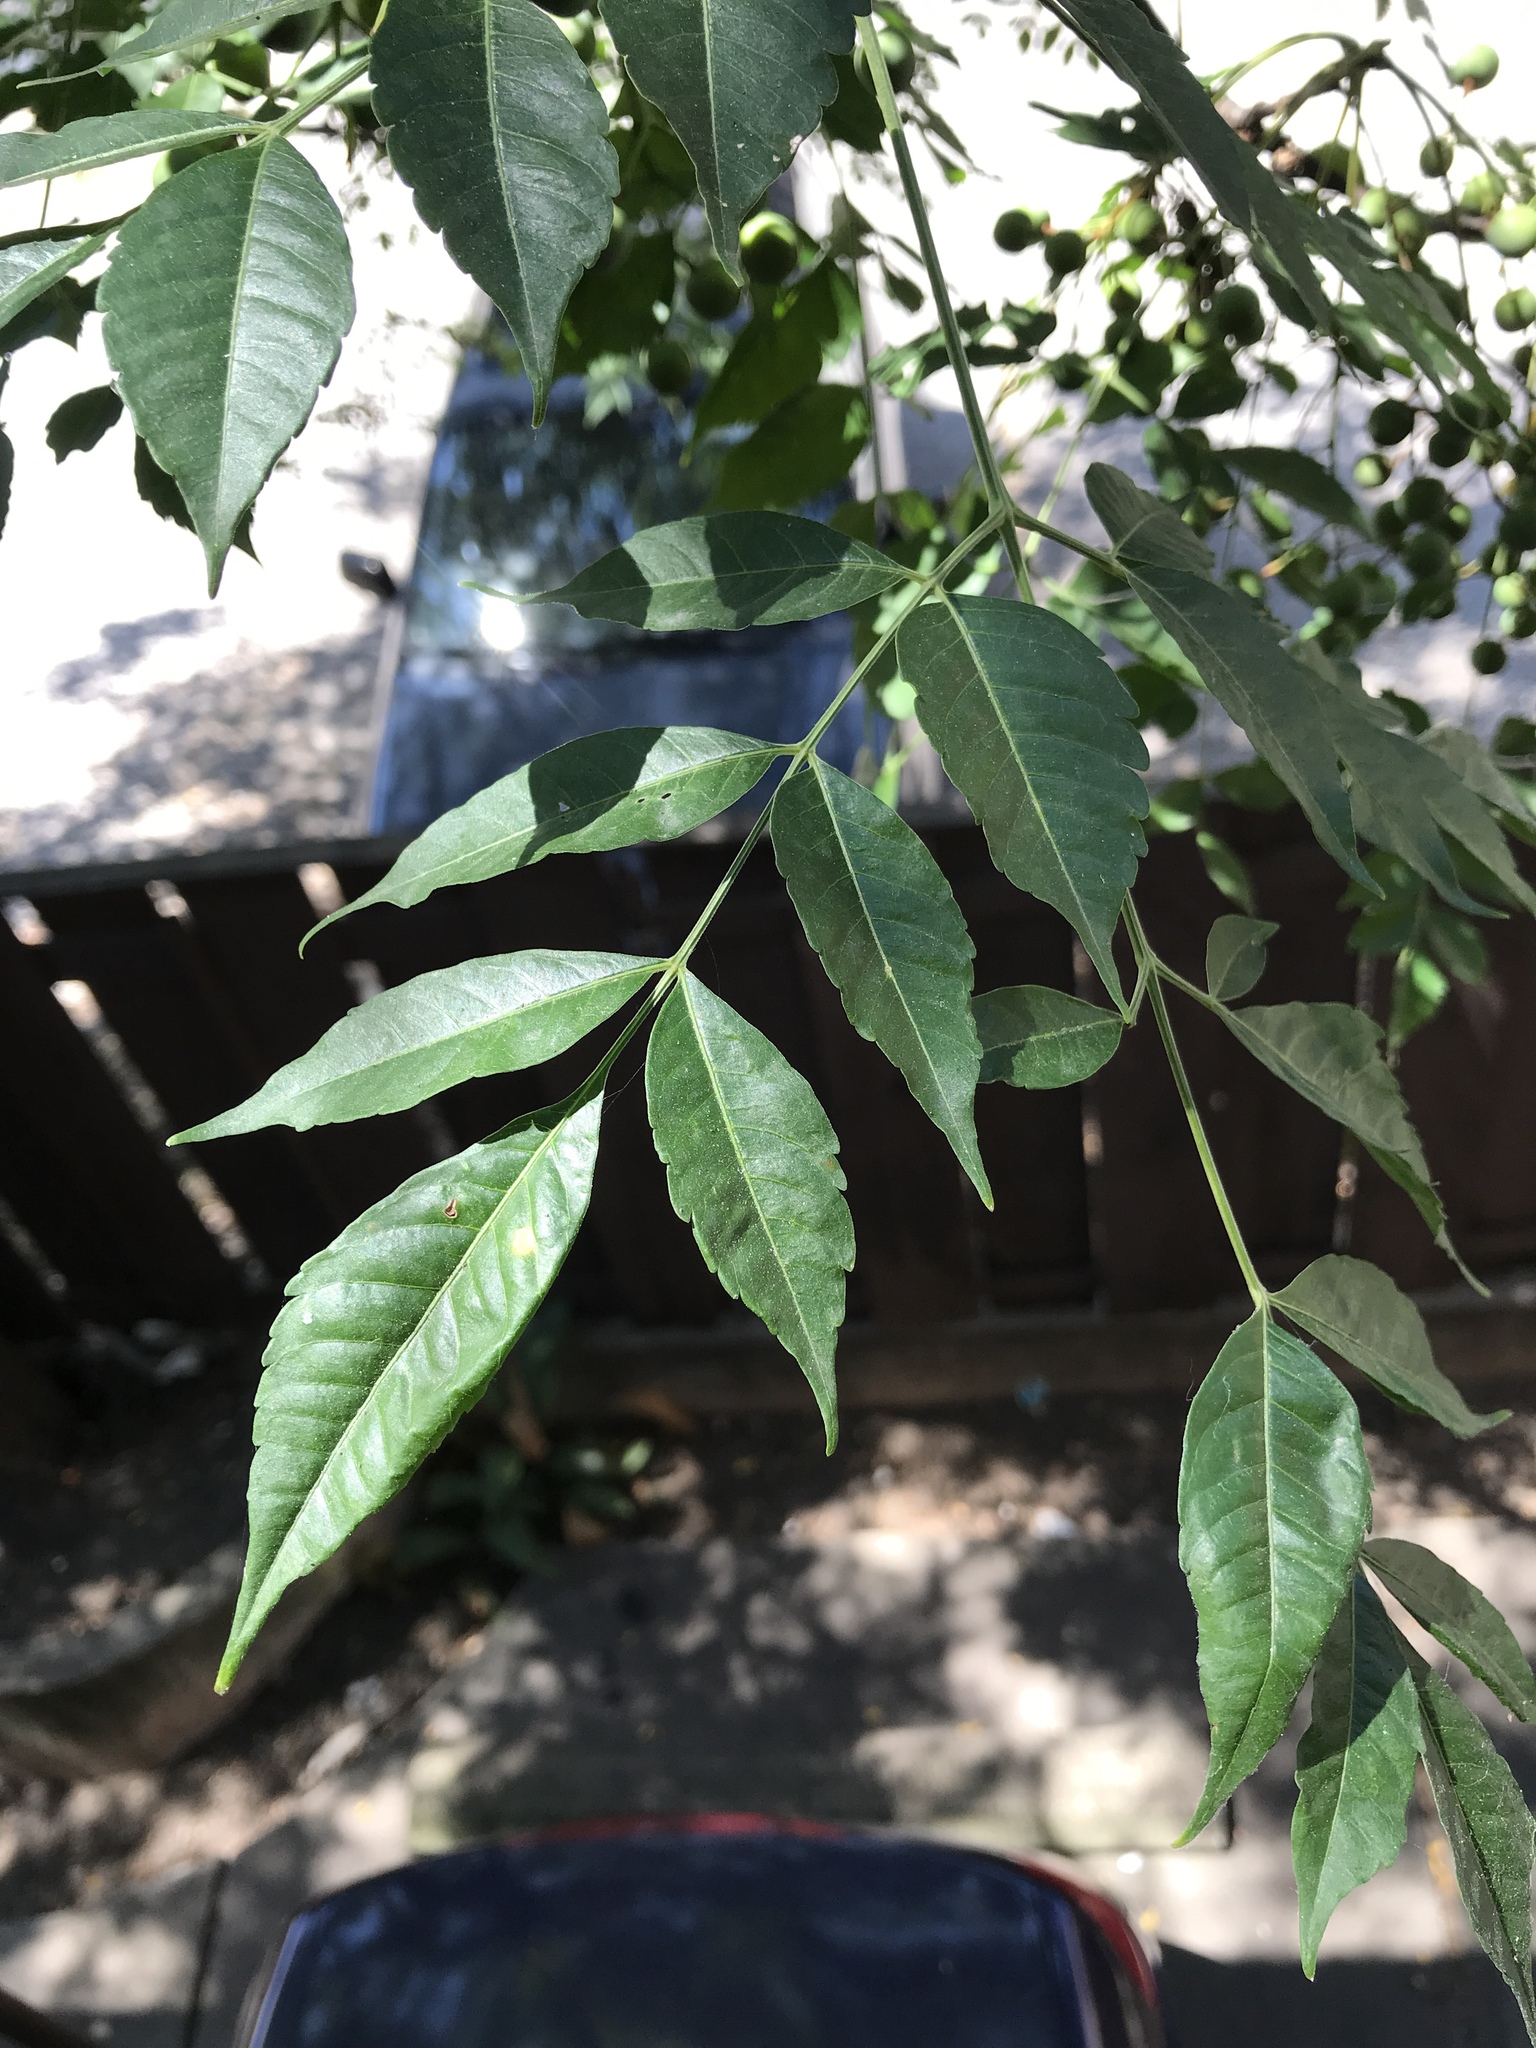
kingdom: Plantae
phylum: Tracheophyta
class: Magnoliopsida
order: Sapindales
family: Meliaceae
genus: Melia
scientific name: Melia azedarach
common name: Chinaberrytree
